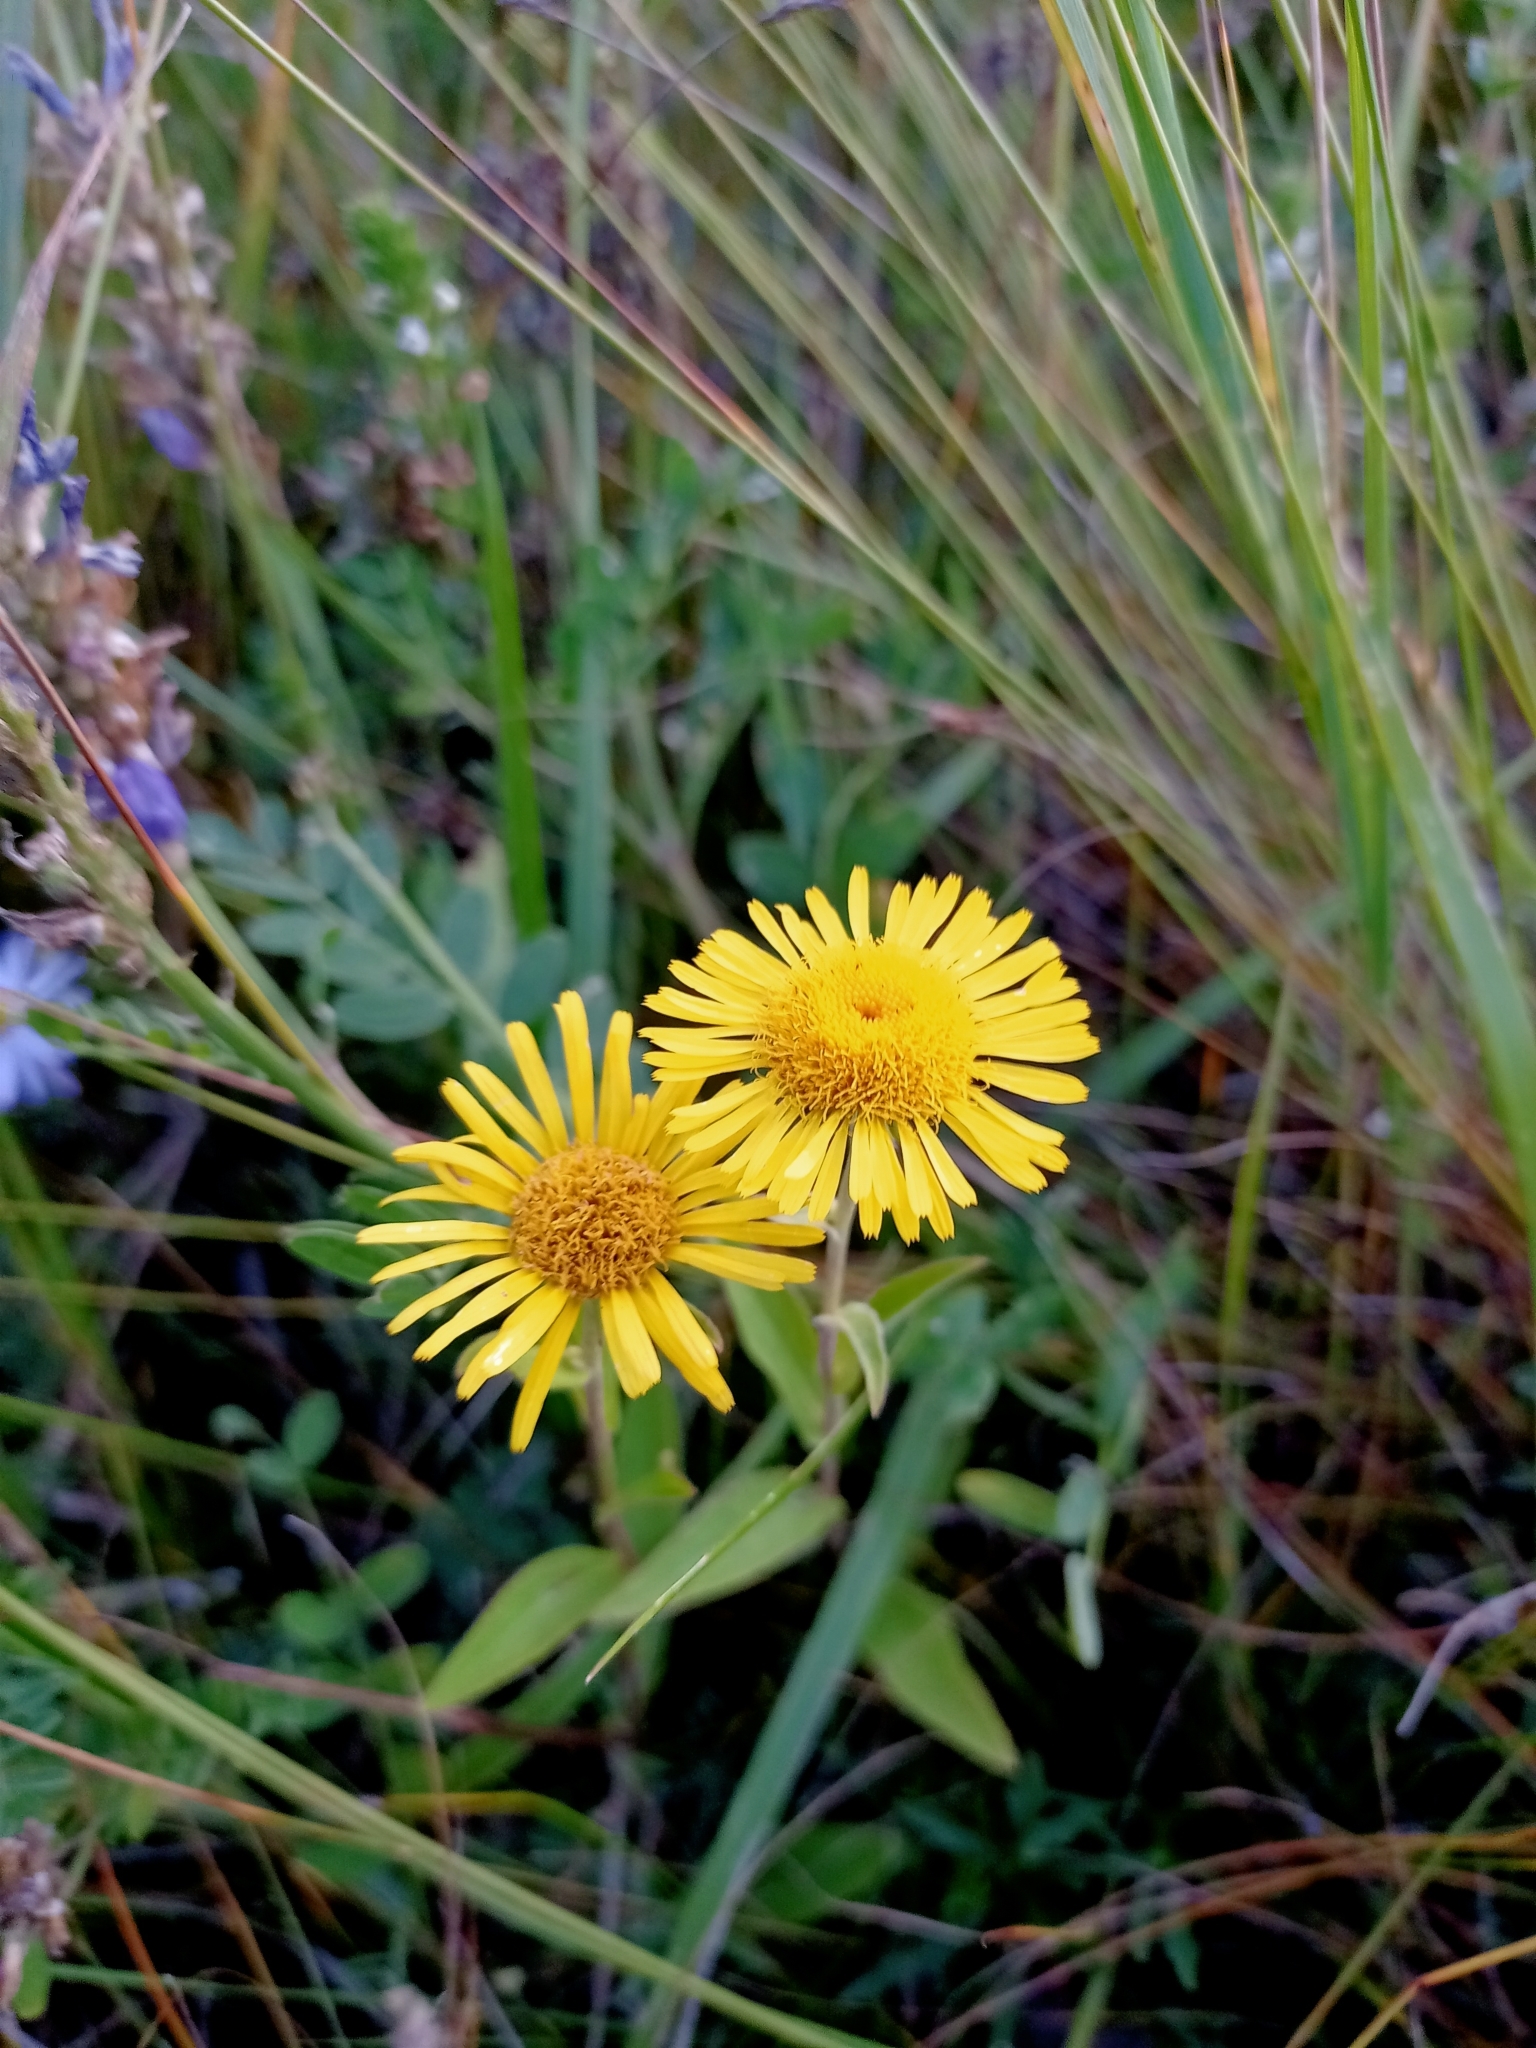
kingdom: Plantae
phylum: Tracheophyta
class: Magnoliopsida
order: Asterales
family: Asteraceae
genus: Pentanema
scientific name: Pentanema britannicum
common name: British elecampane
